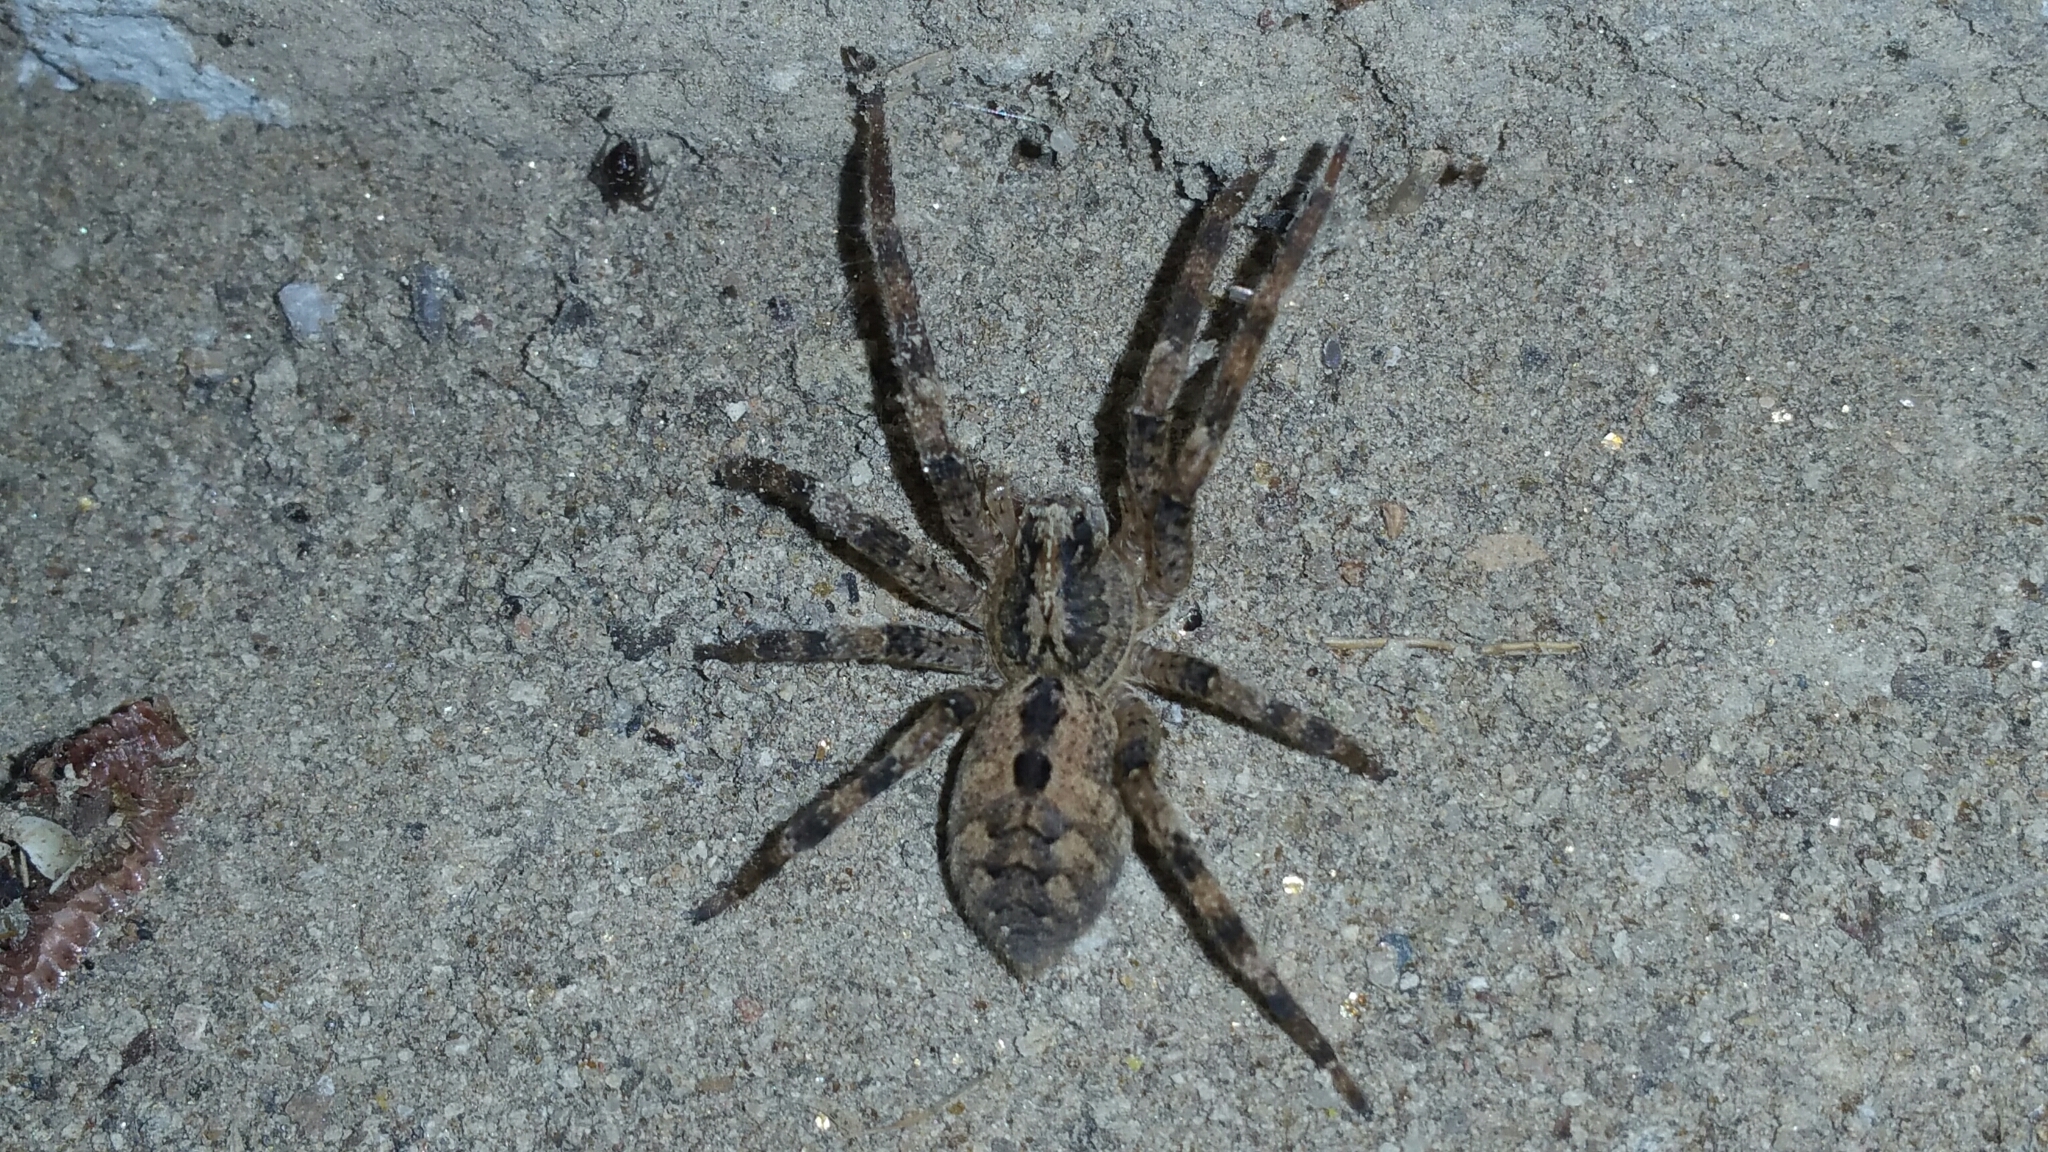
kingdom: Animalia
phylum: Arthropoda
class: Arachnida
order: Araneae
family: Zoropsidae
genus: Zoropsis
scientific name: Zoropsis spinimana
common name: Zoropsid spider
